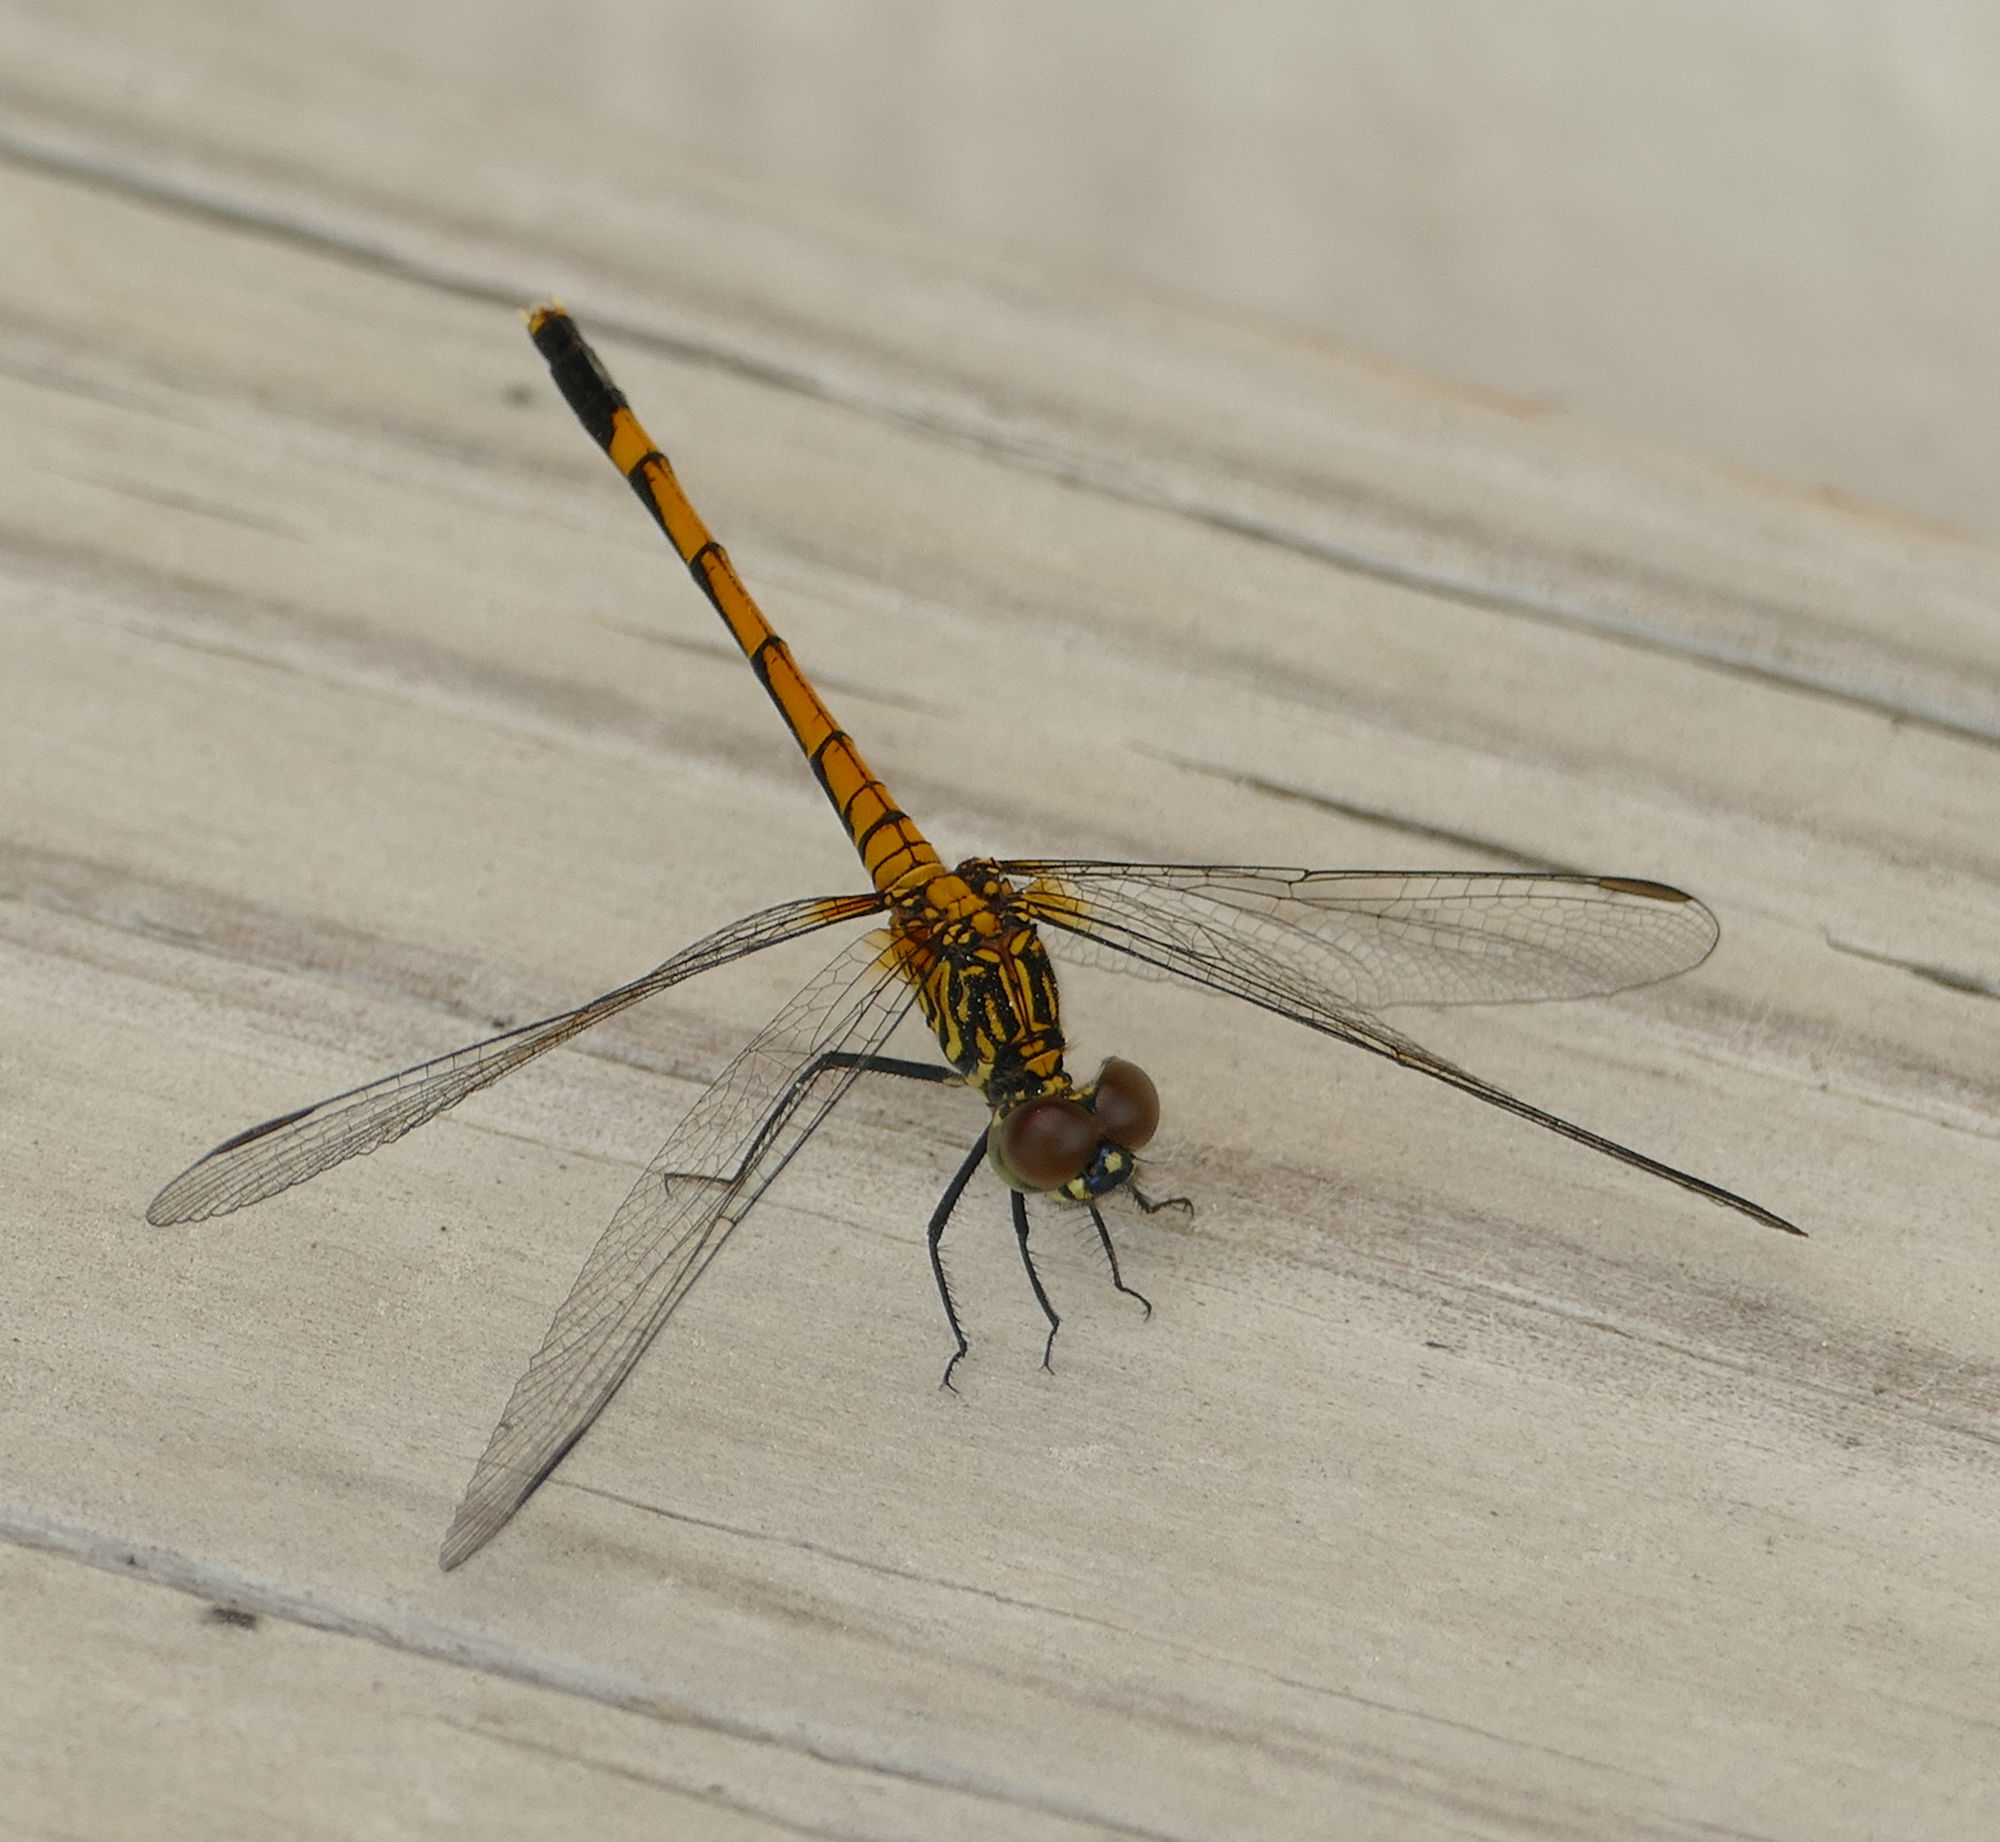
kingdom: Animalia
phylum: Arthropoda
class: Insecta
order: Odonata
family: Libellulidae
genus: Erythrodiplax
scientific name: Erythrodiplax berenice
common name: Seaside dragonlet
